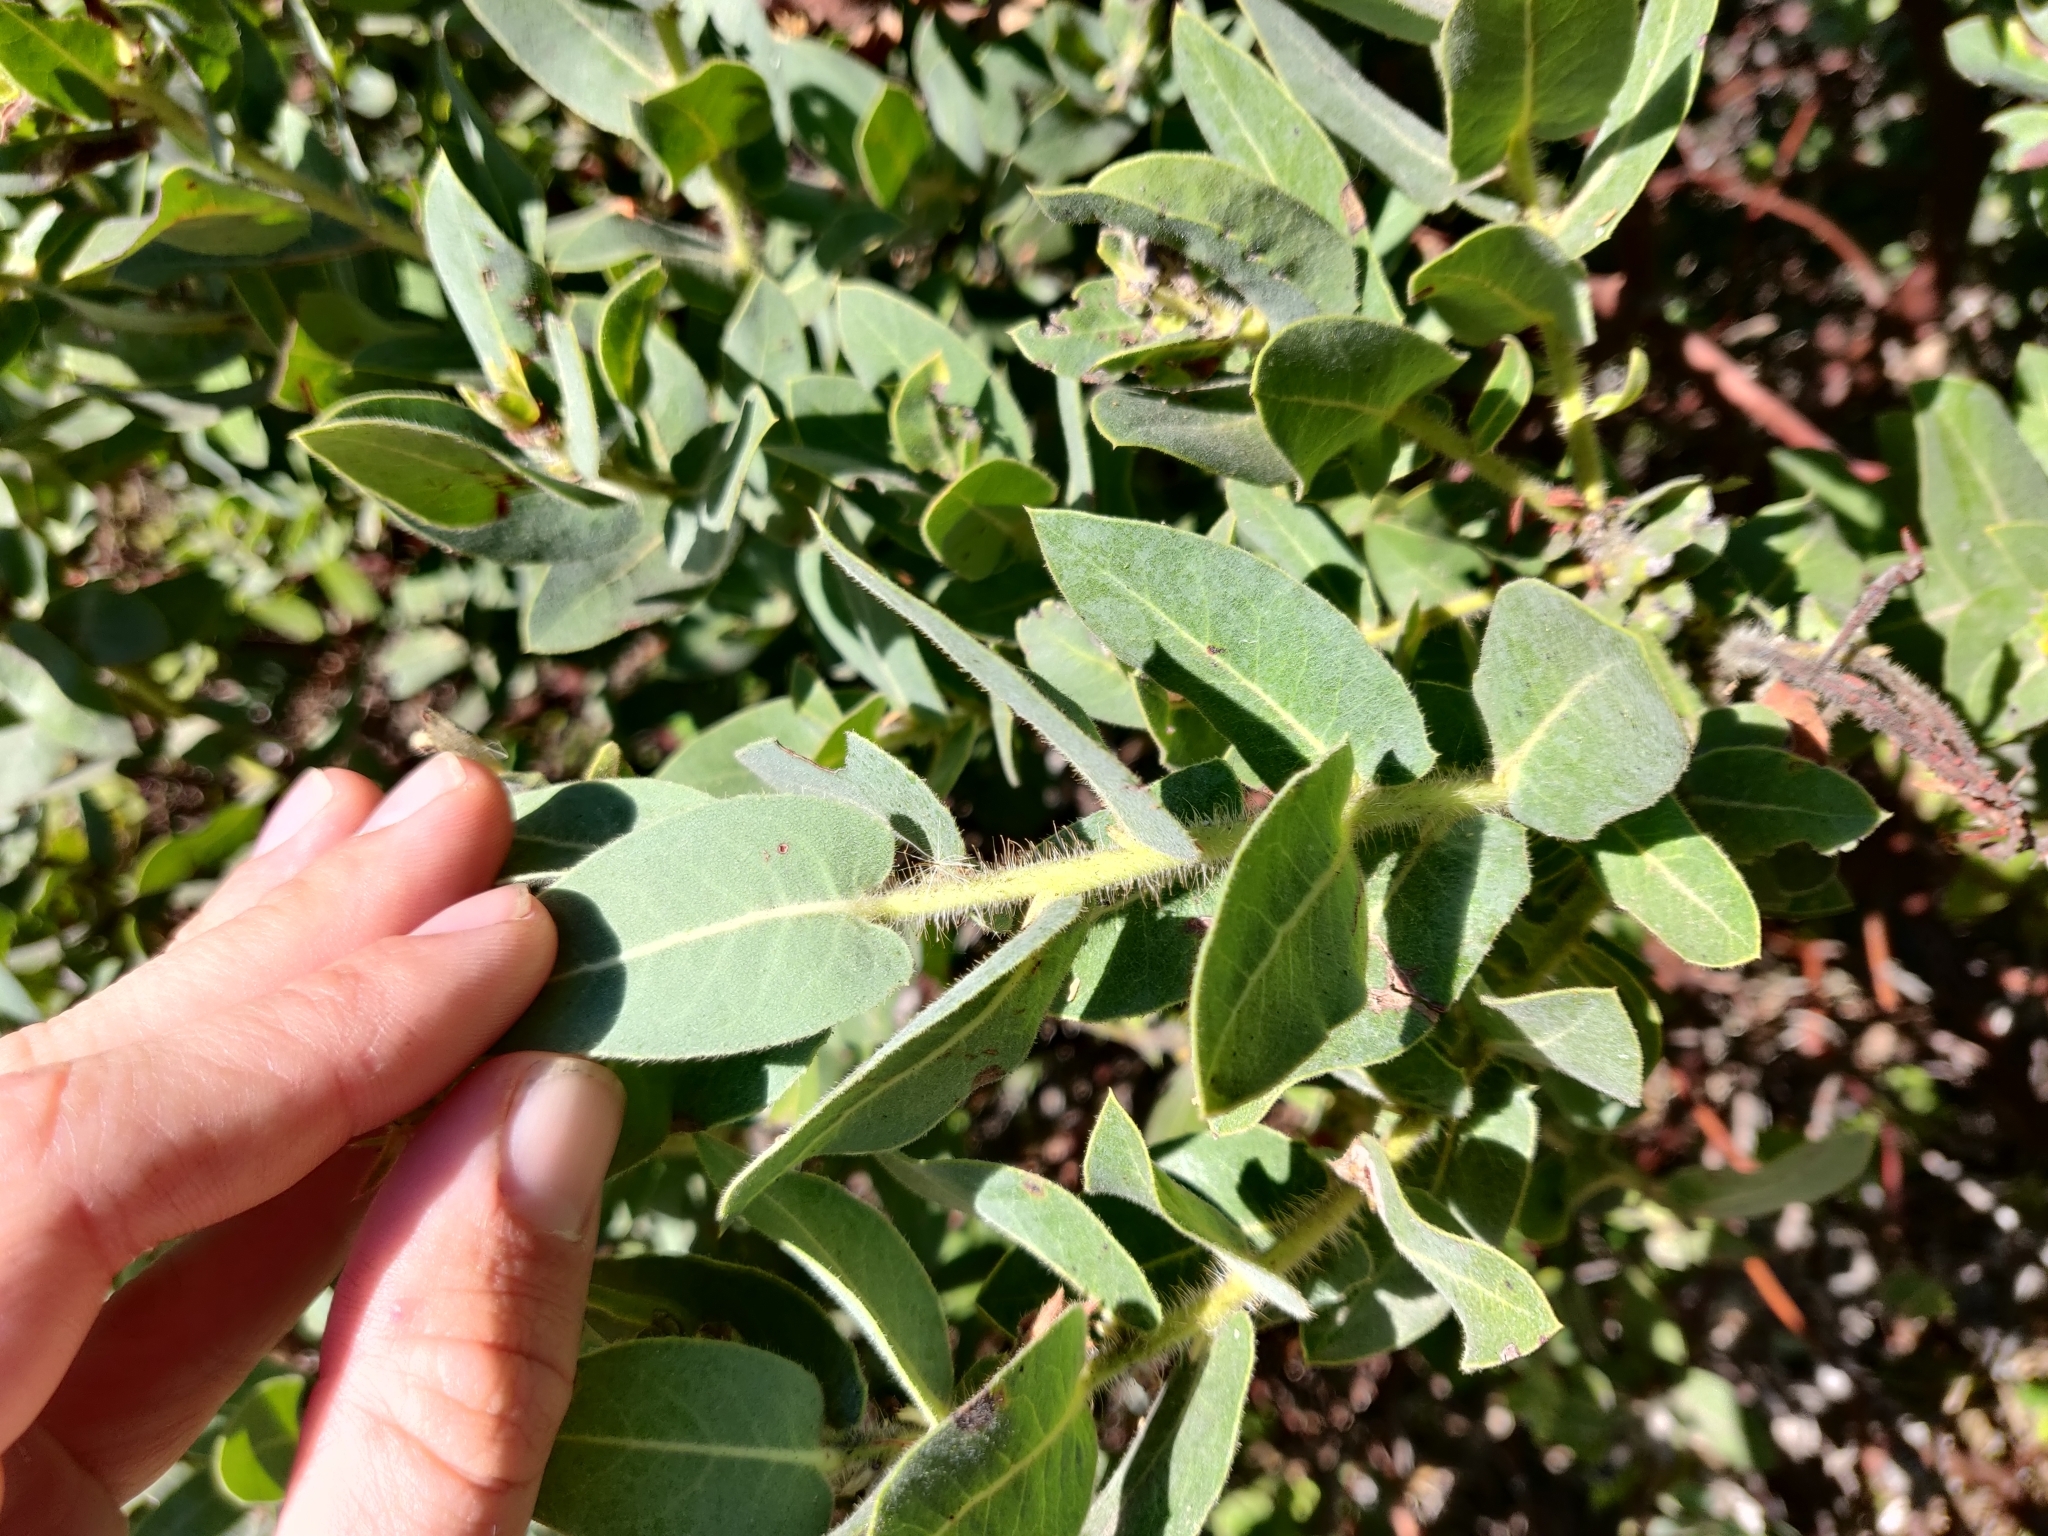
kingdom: Plantae
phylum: Tracheophyta
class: Magnoliopsida
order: Ericales
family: Ericaceae
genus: Arctostaphylos
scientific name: Arctostaphylos regismontana
